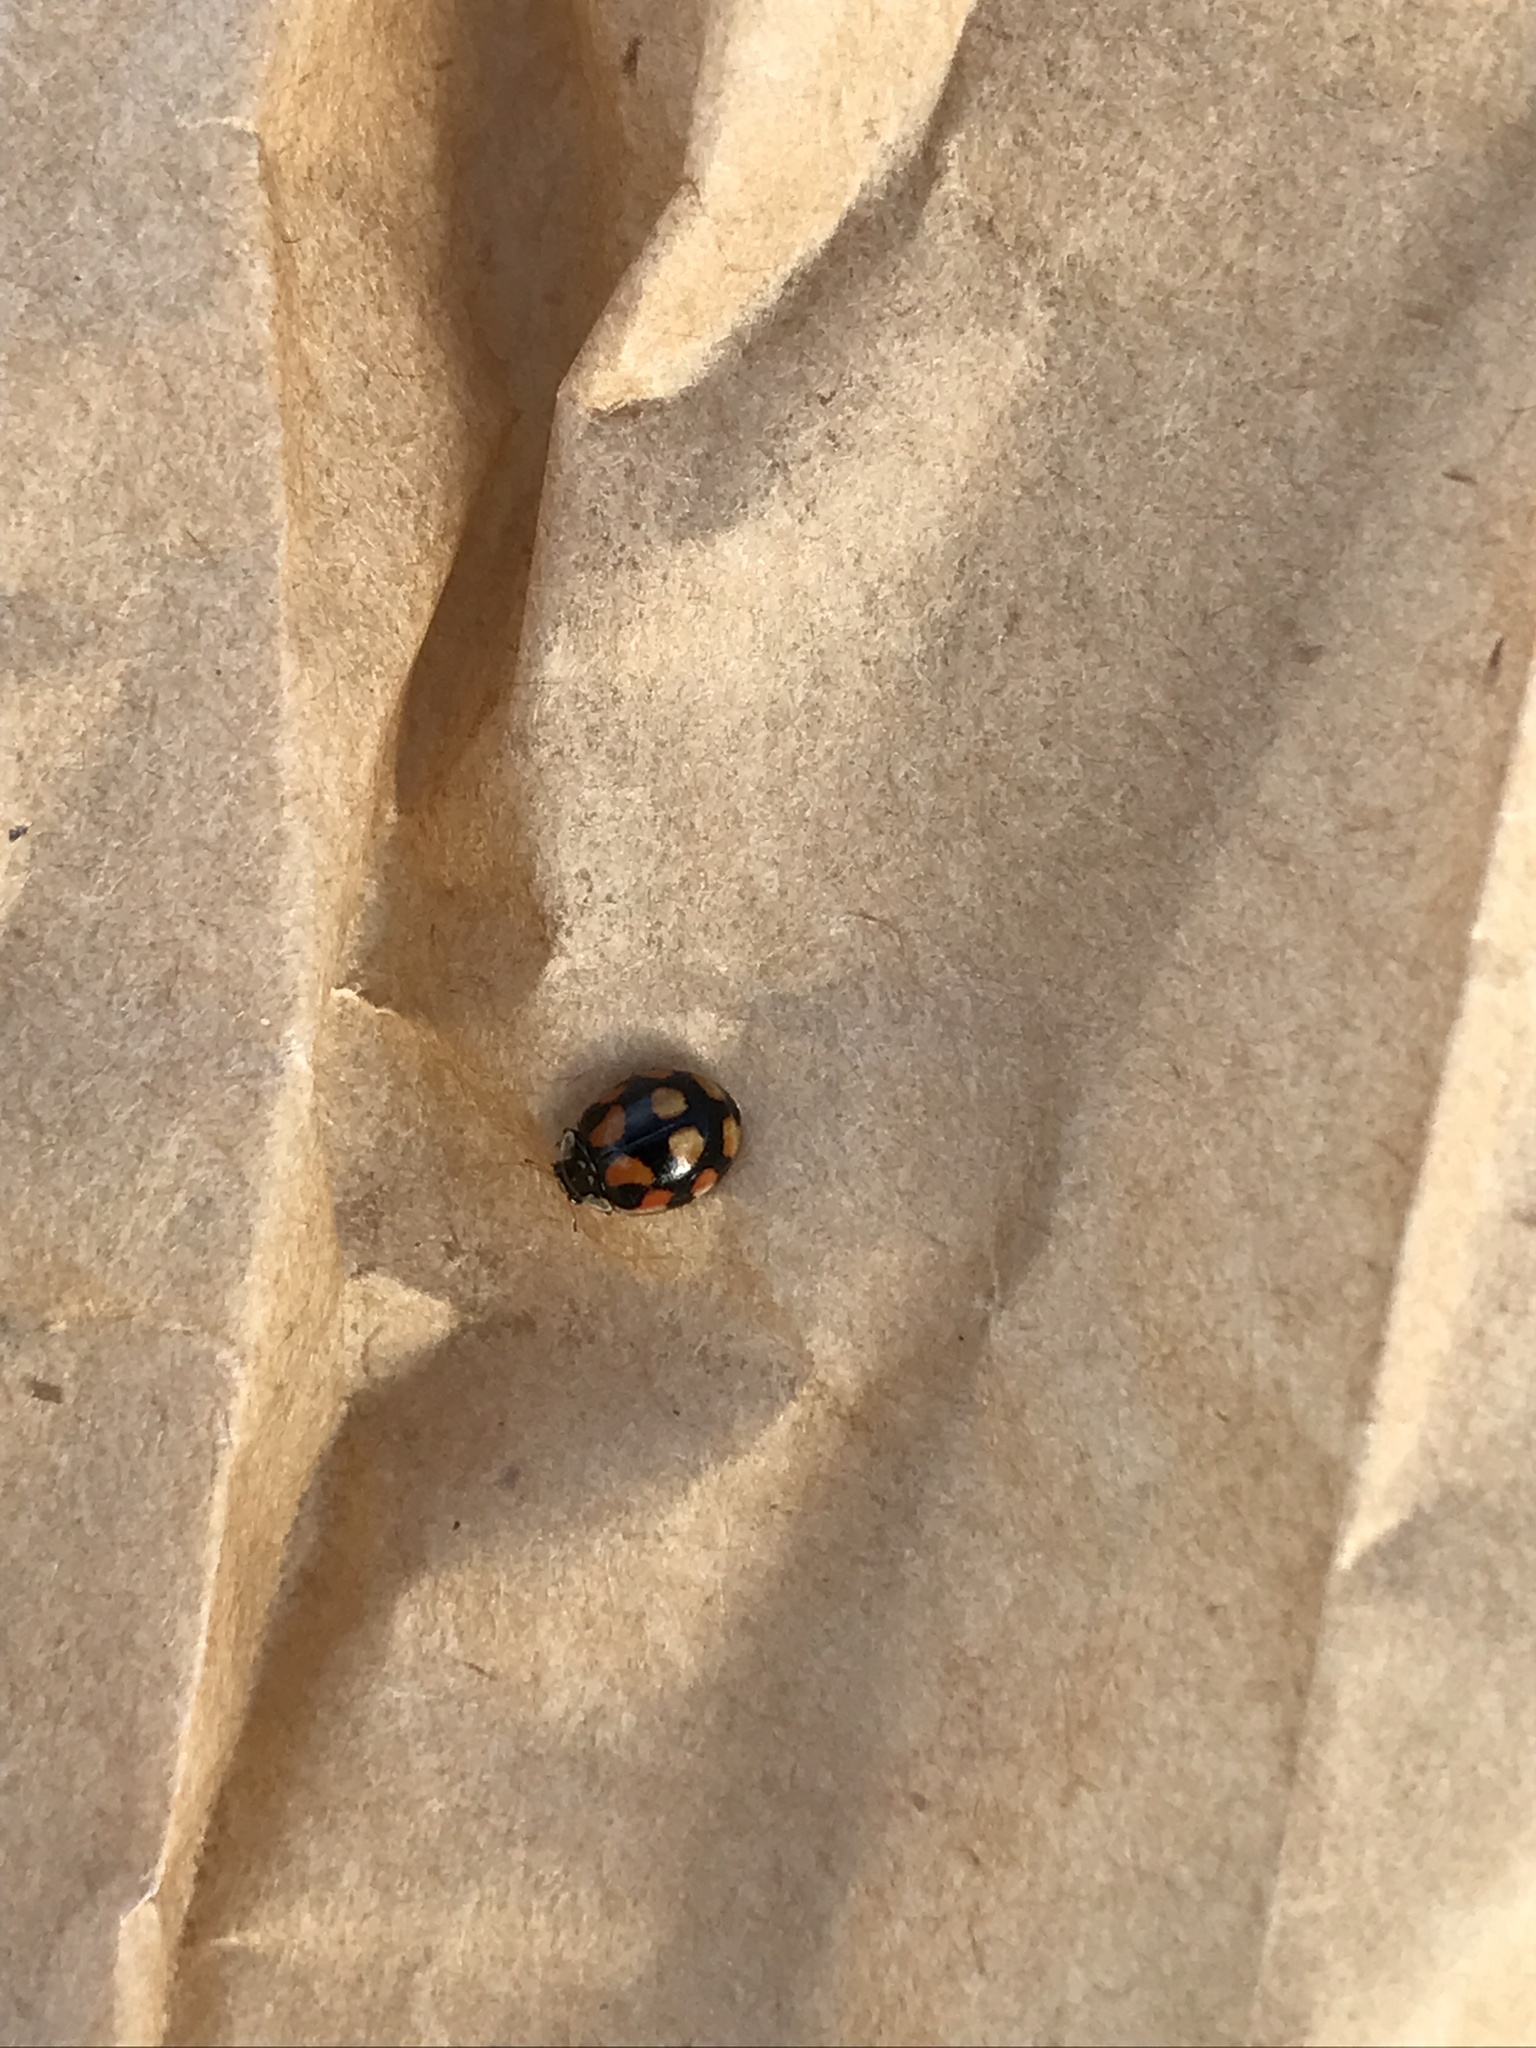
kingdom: Animalia
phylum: Arthropoda
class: Insecta
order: Coleoptera
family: Coccinellidae
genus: Adalia
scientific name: Adalia decempunctata
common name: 10-spot ladybird
